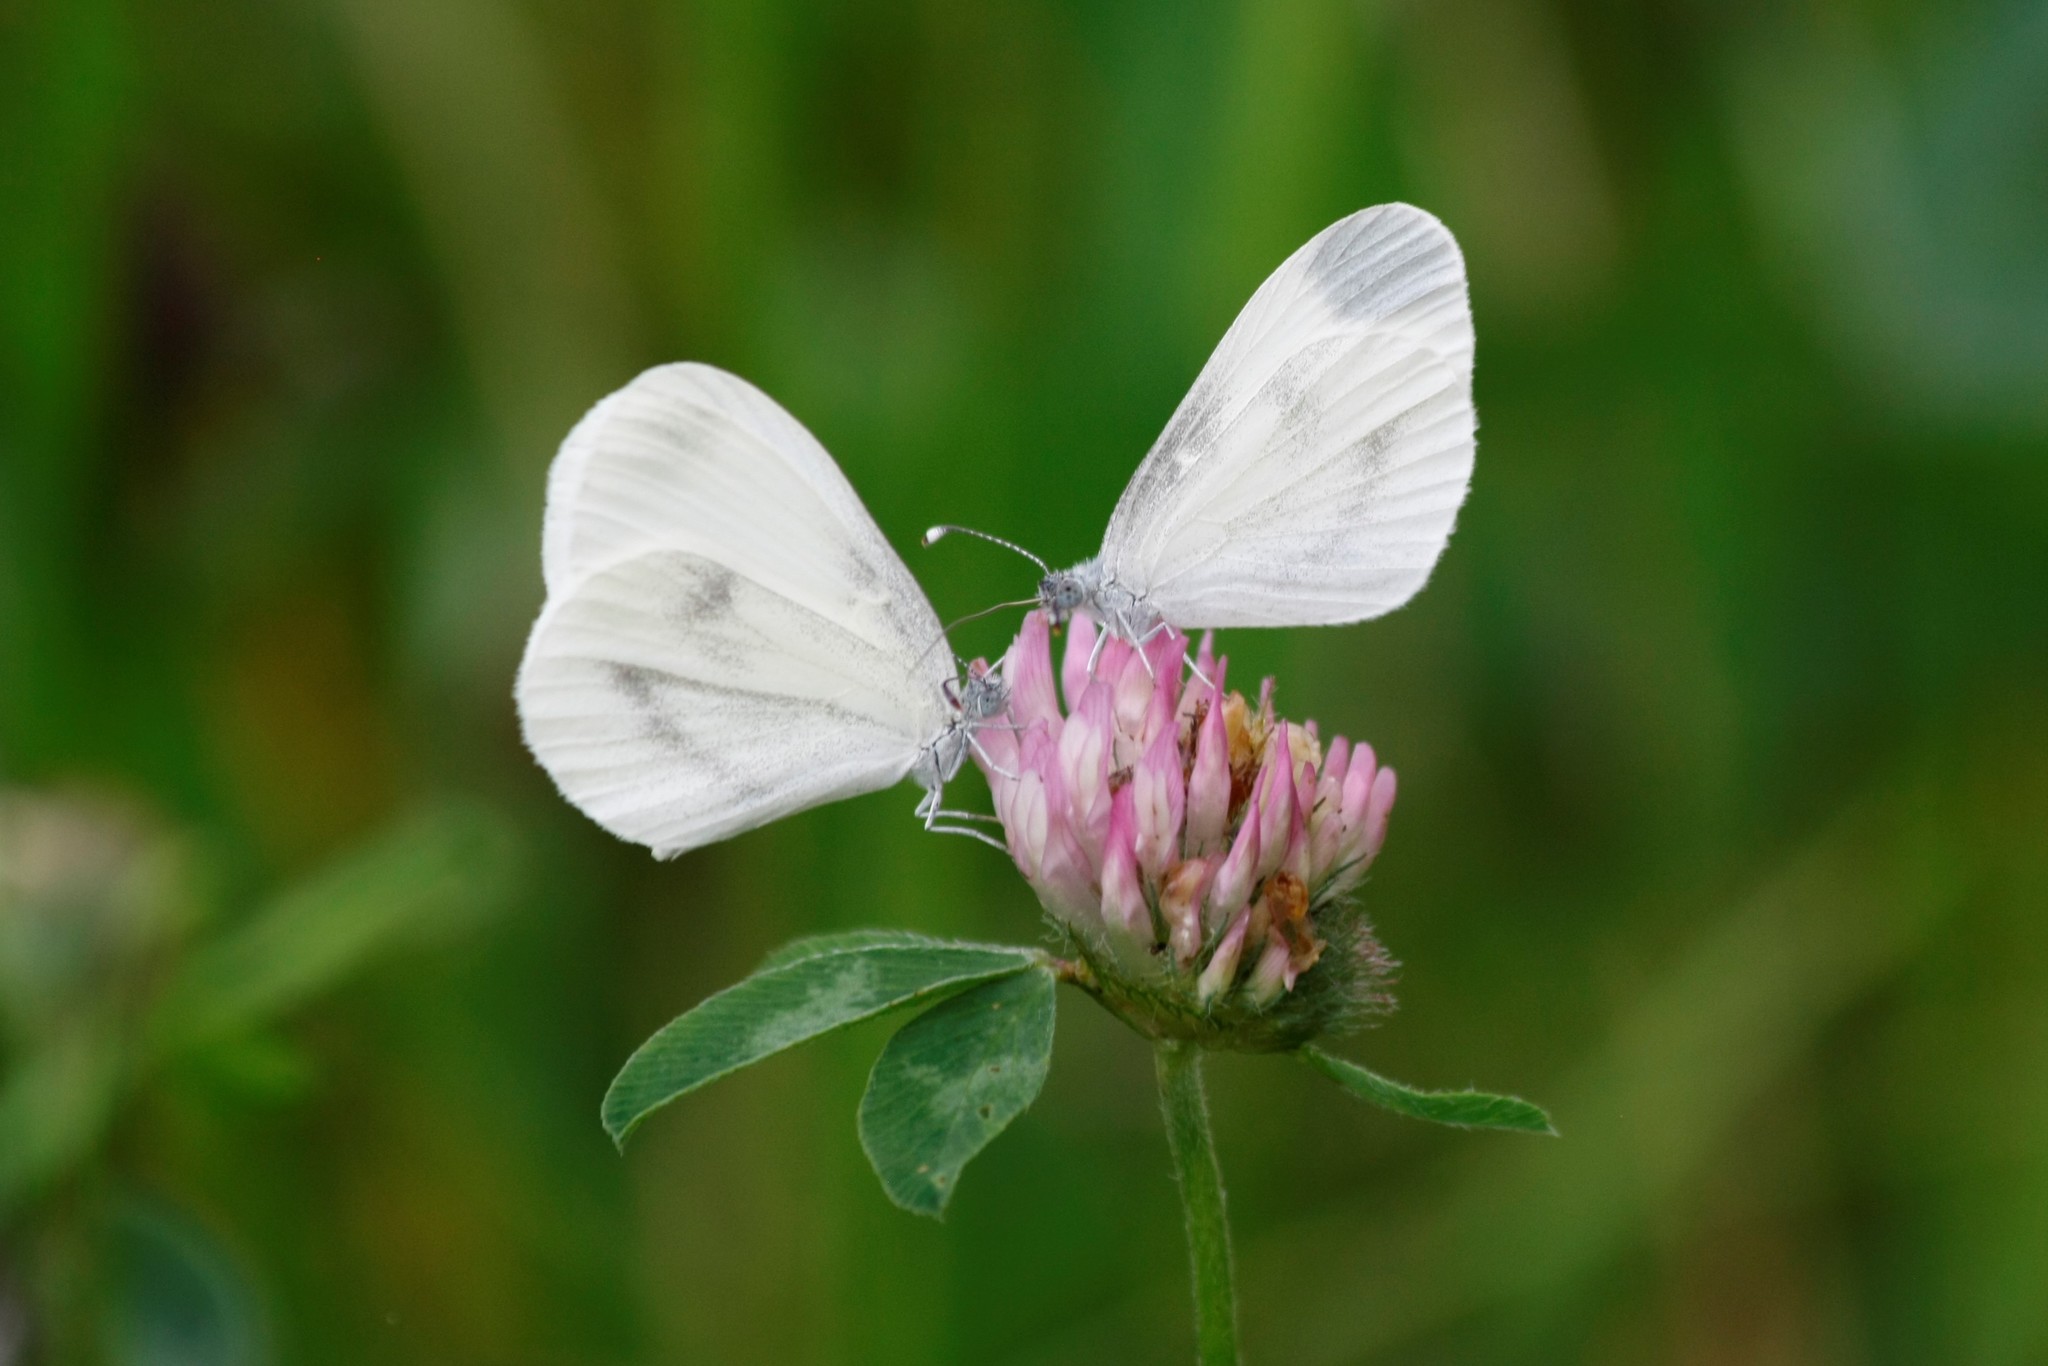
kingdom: Animalia
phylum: Arthropoda
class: Insecta
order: Lepidoptera
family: Pieridae
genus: Leptidea
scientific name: Leptidea
